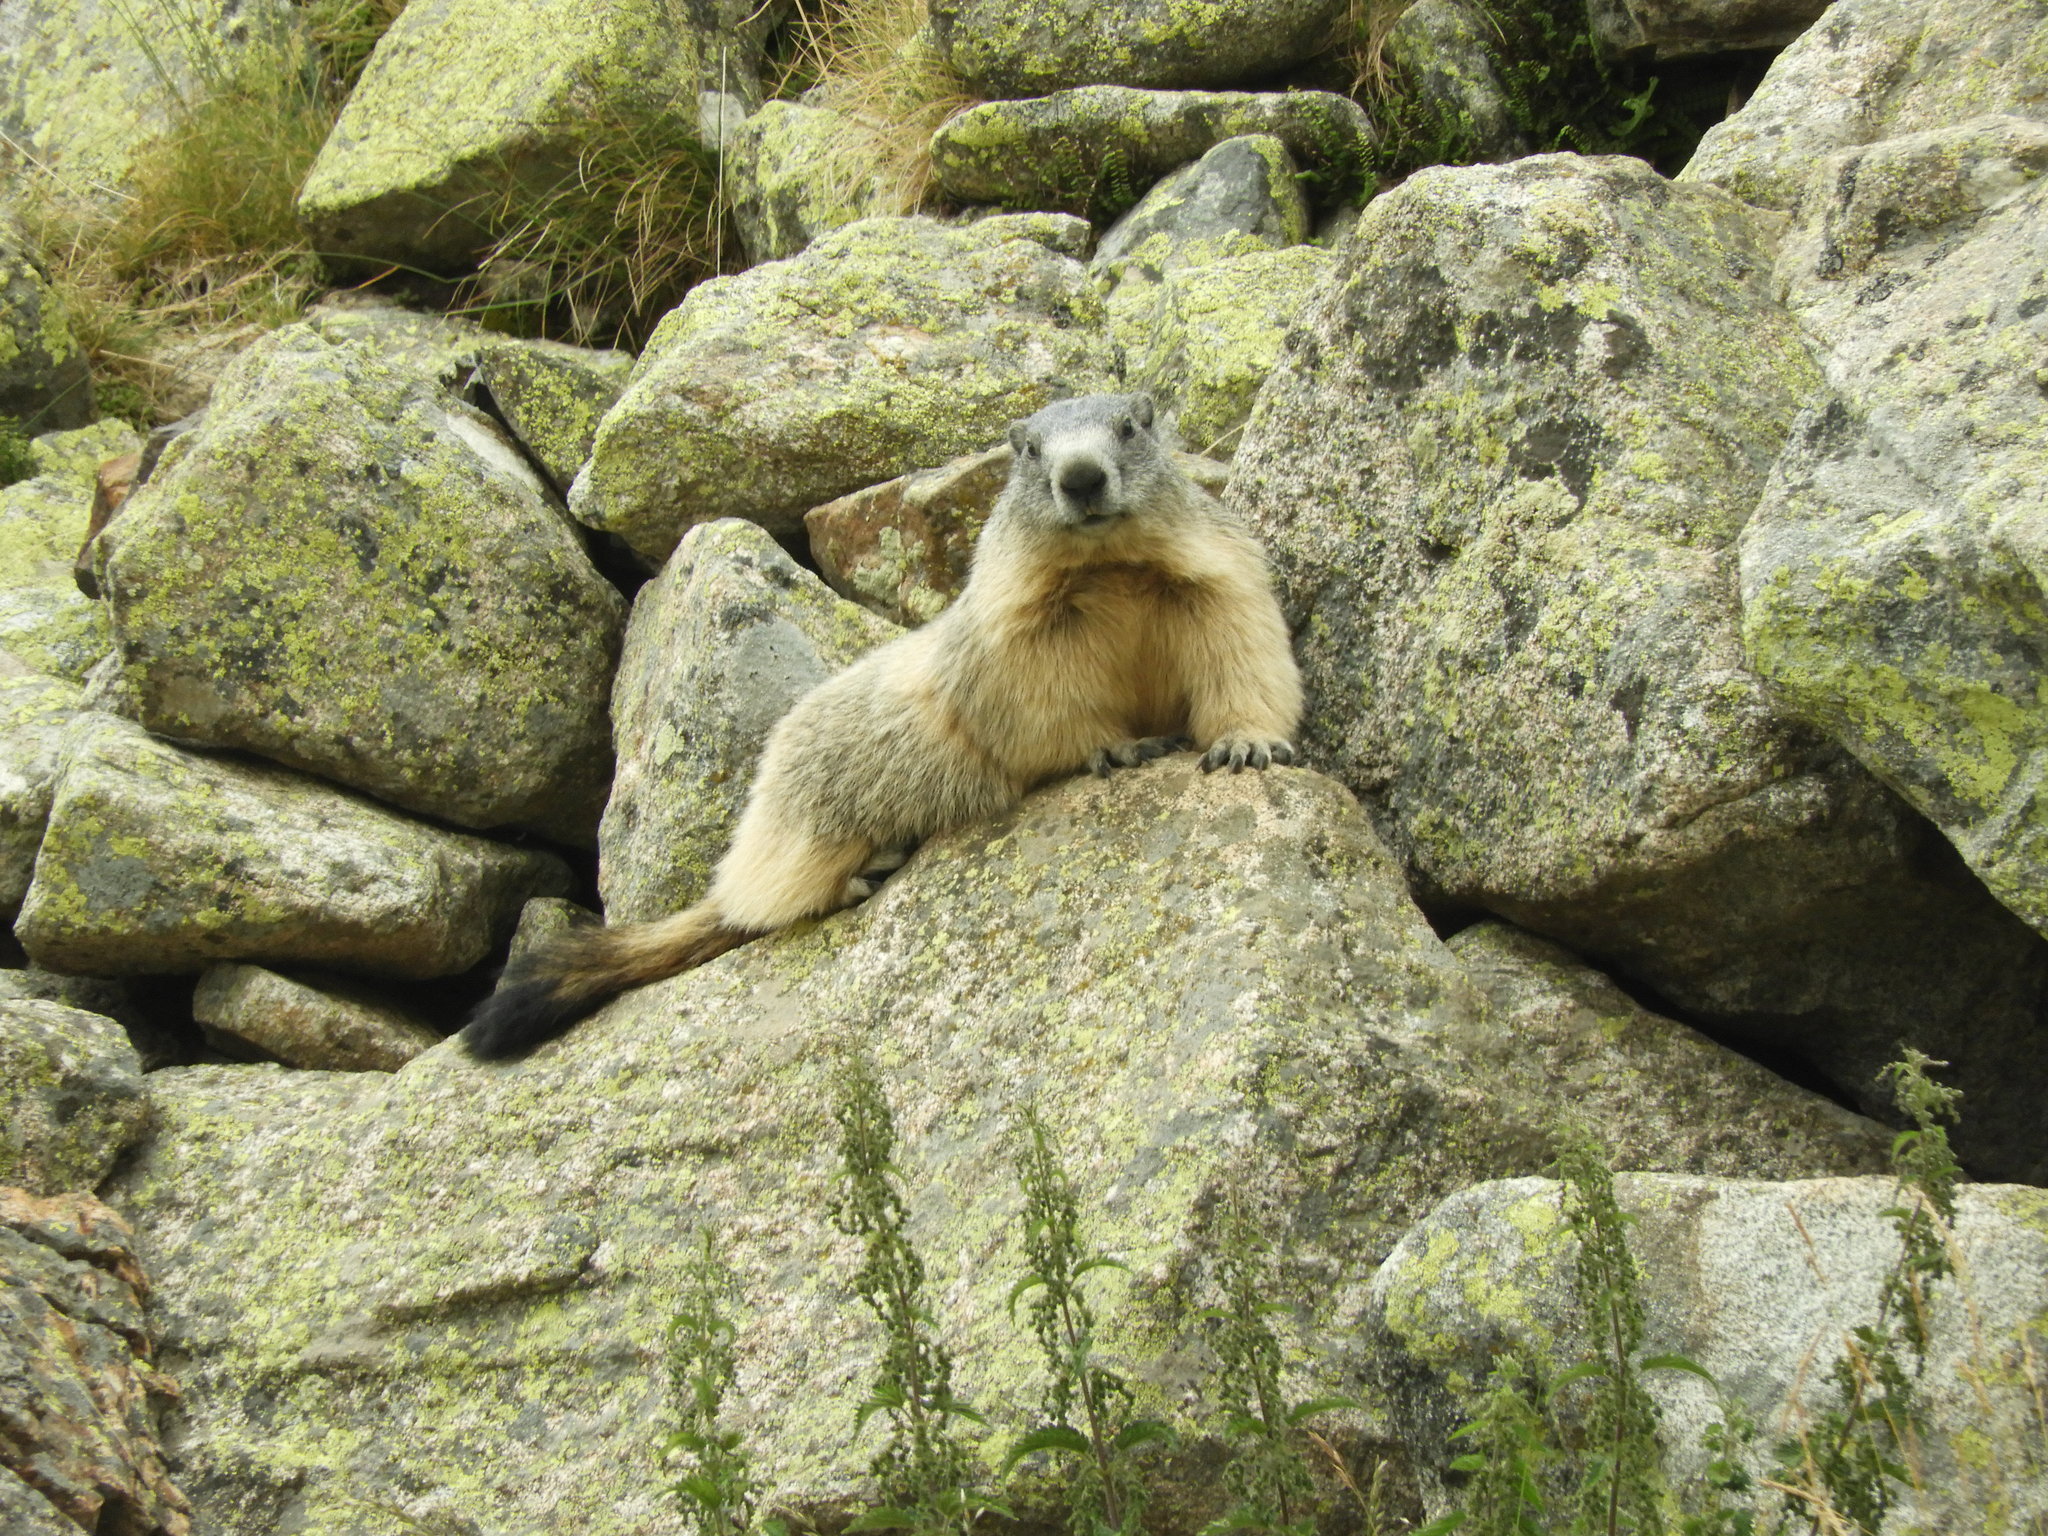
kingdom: Animalia
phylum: Chordata
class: Mammalia
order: Rodentia
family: Sciuridae
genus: Marmota
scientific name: Marmota marmota
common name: Alpine marmot
